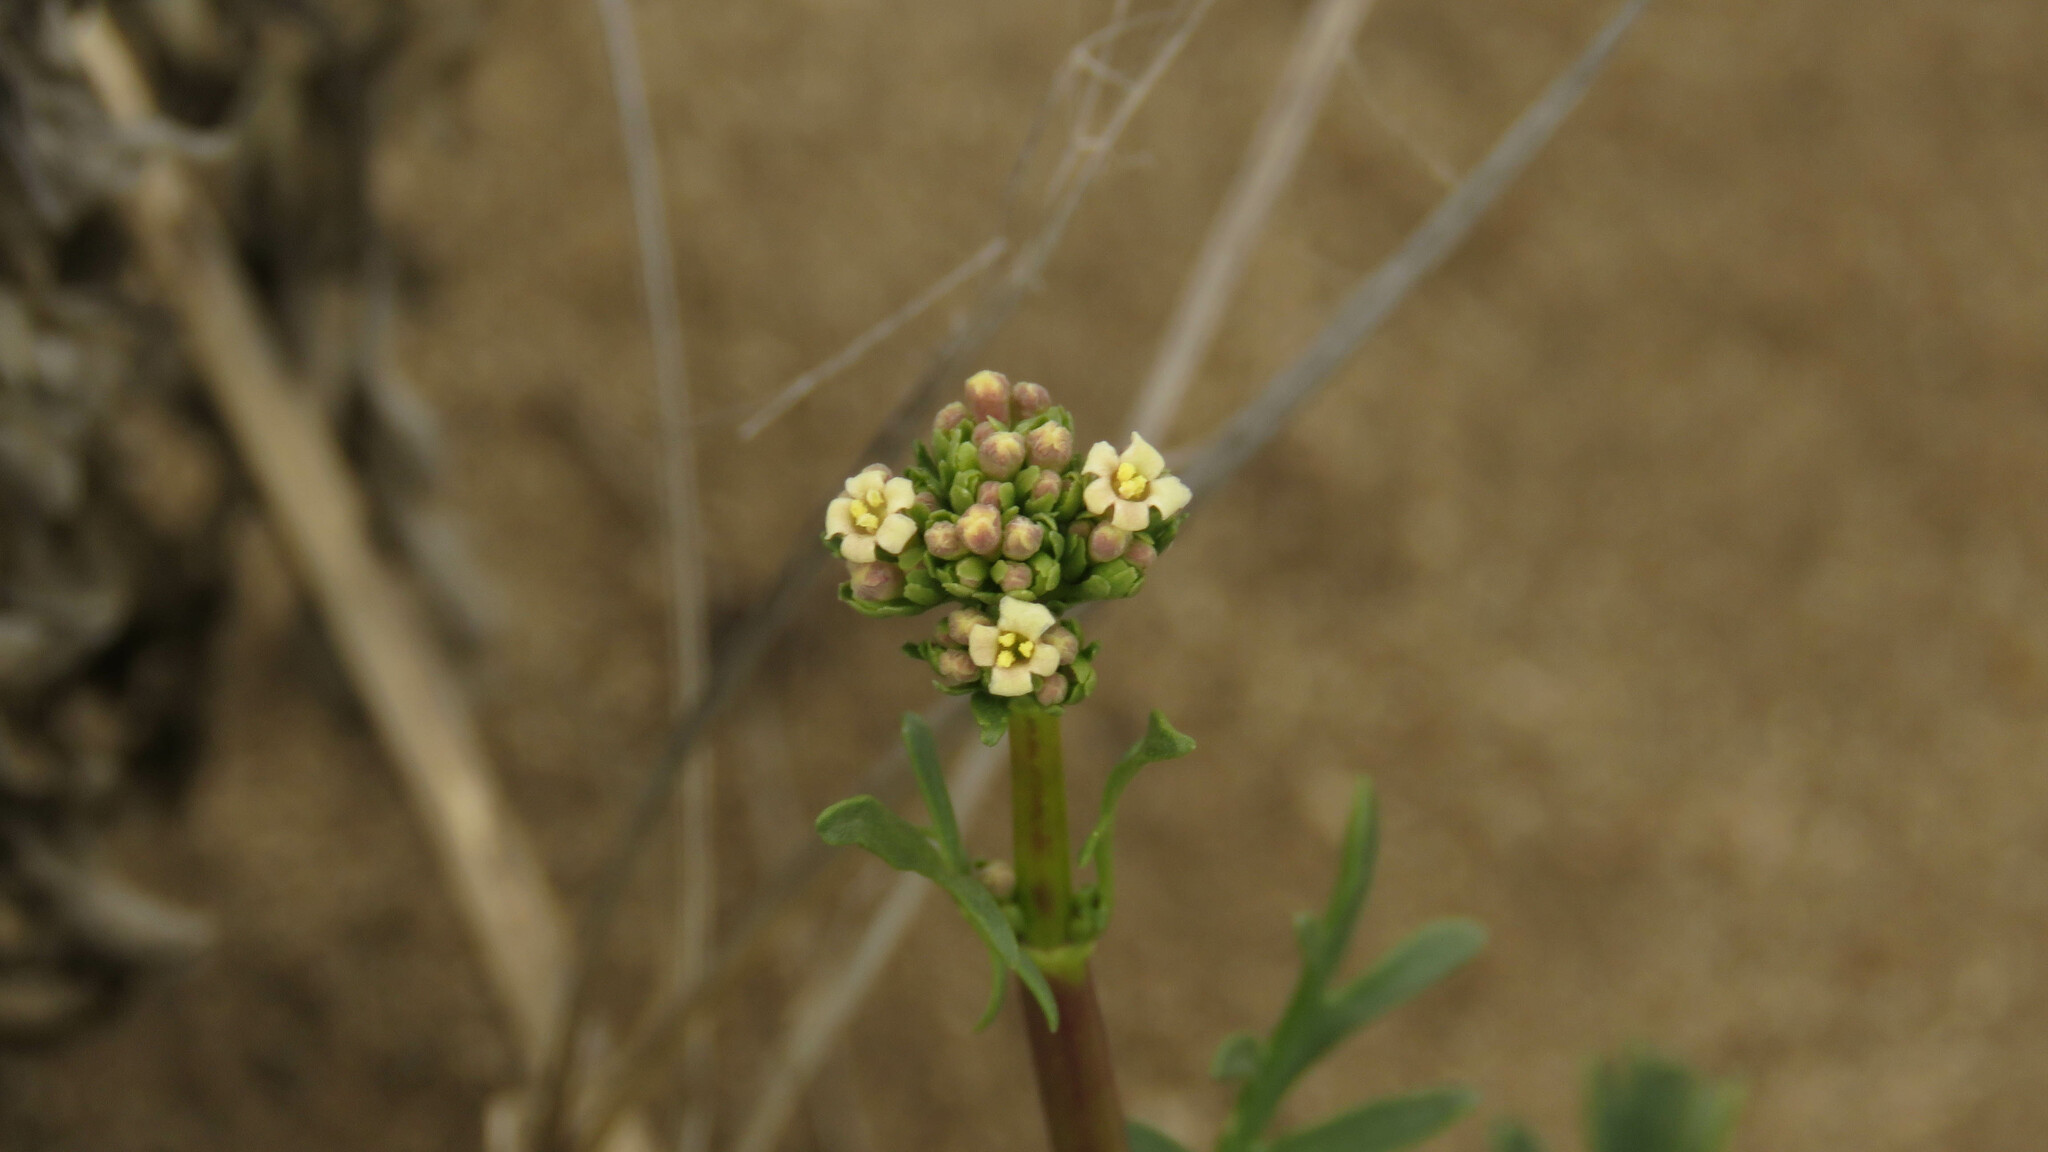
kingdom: Plantae
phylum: Tracheophyta
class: Magnoliopsida
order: Dipsacales
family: Caprifoliaceae
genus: Valeriana
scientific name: Valeriana clarionifolia
